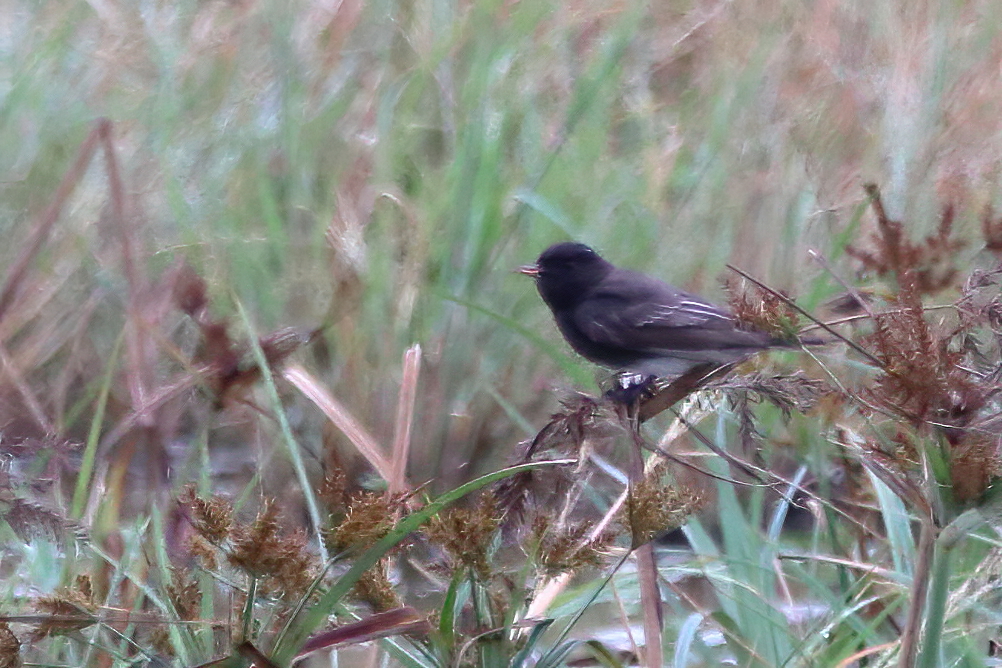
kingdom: Animalia
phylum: Chordata
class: Aves
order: Passeriformes
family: Tyrannidae
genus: Sayornis
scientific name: Sayornis nigricans
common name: Black phoebe
